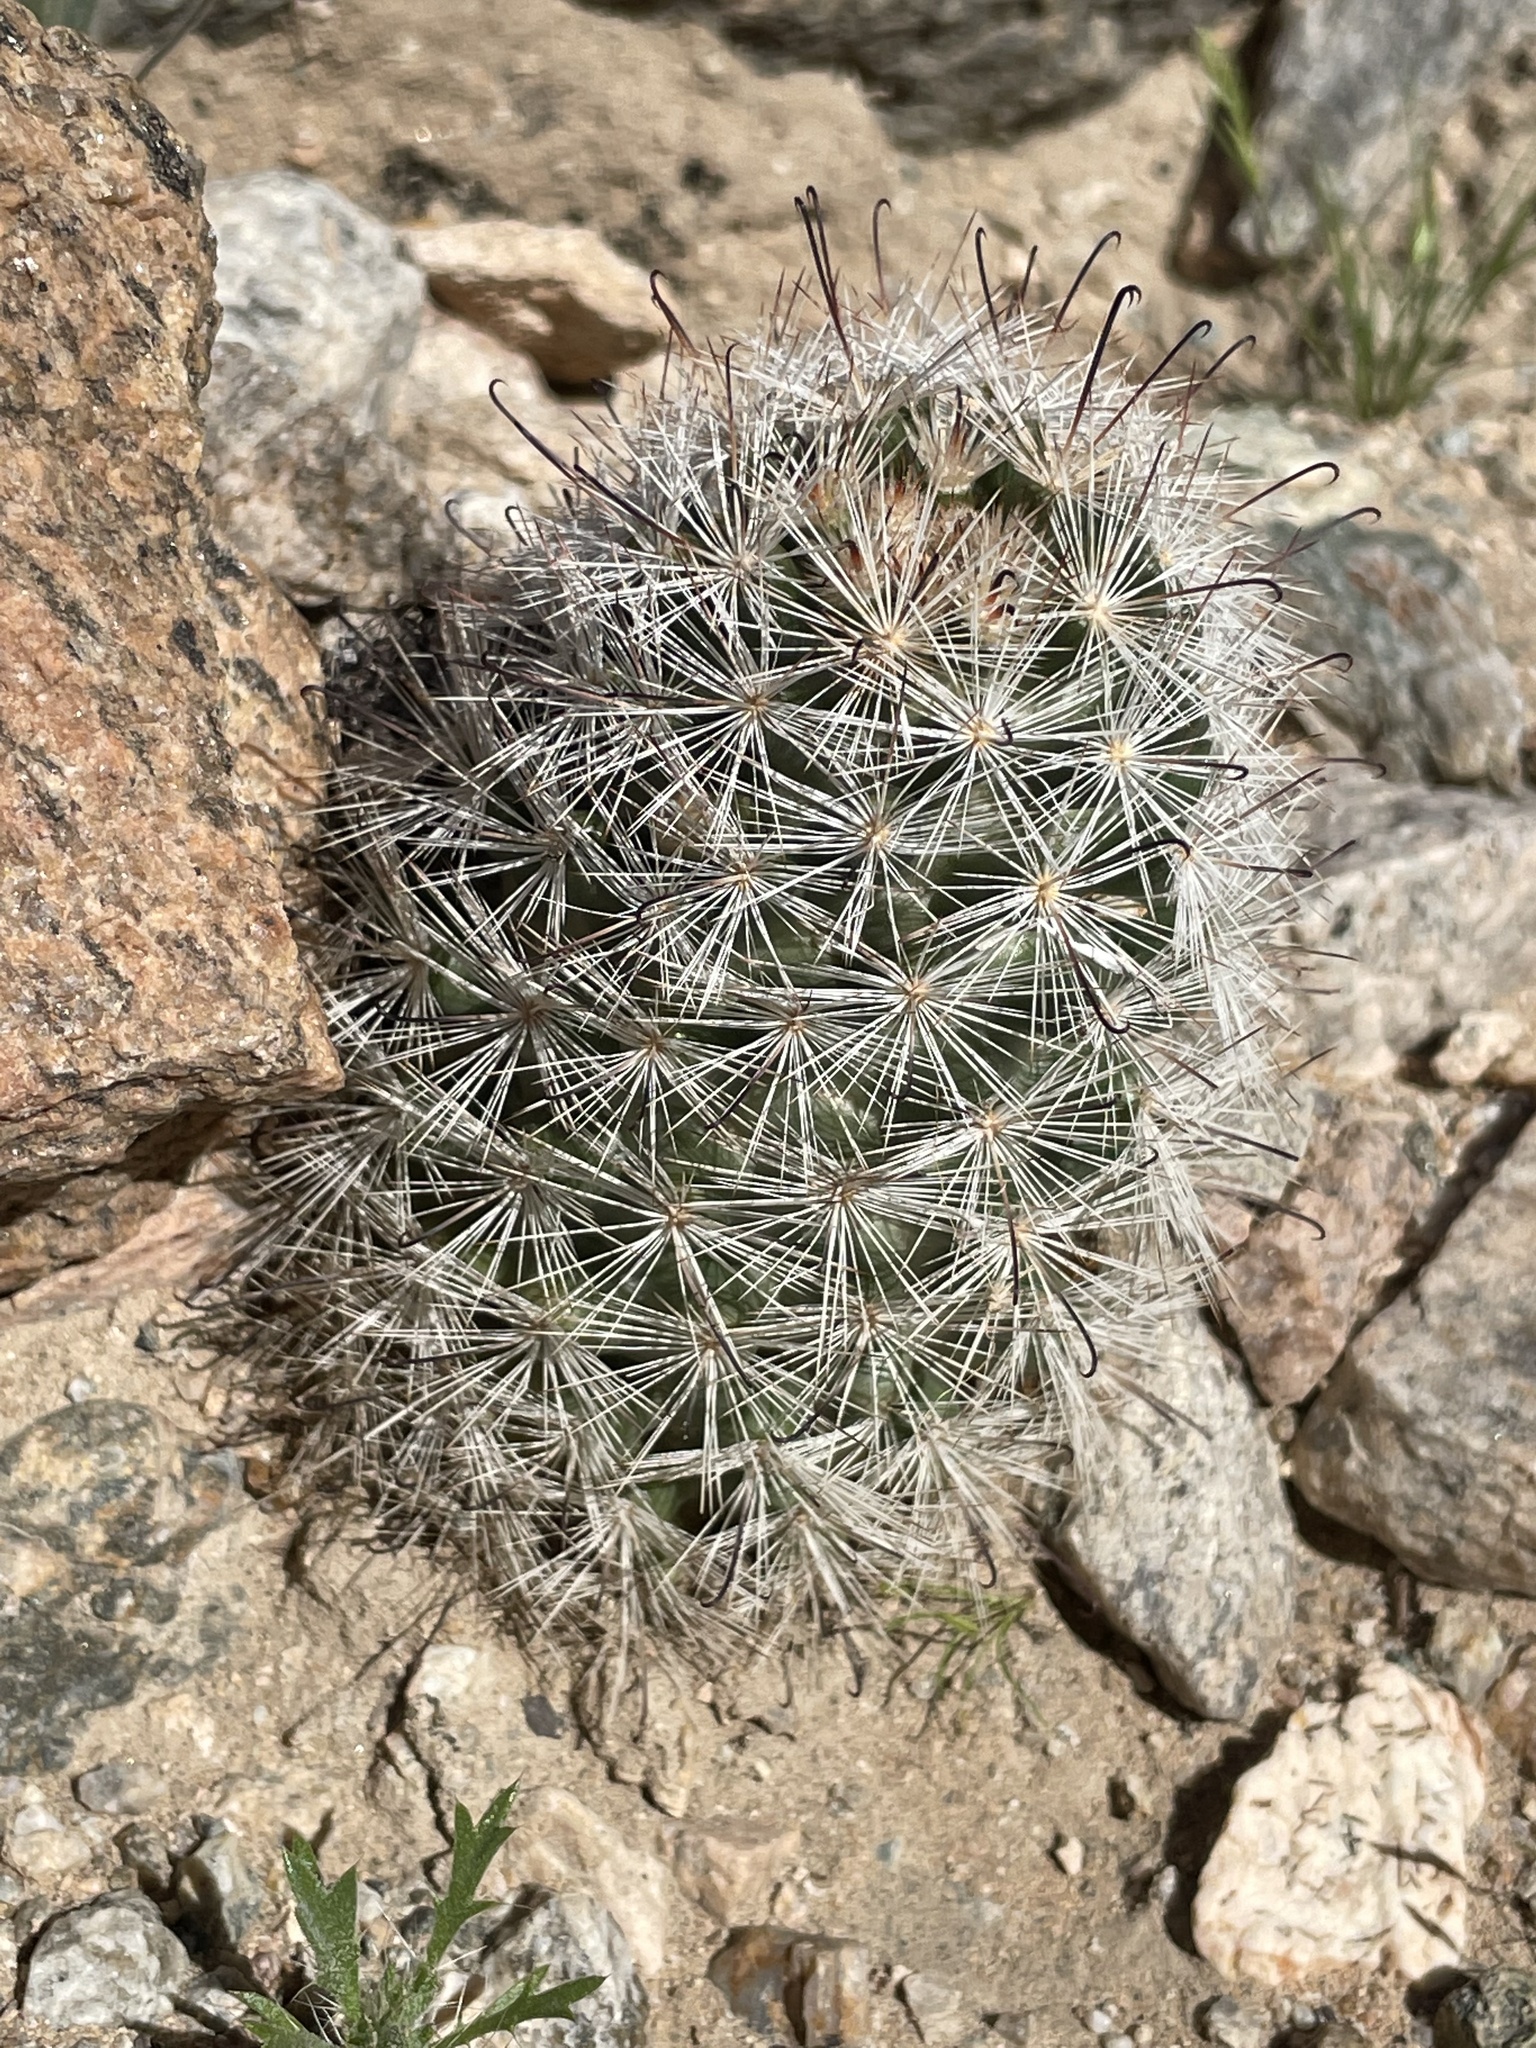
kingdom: Plantae
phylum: Tracheophyta
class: Magnoliopsida
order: Caryophyllales
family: Cactaceae
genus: Cochemiea
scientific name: Cochemiea tetrancistra
